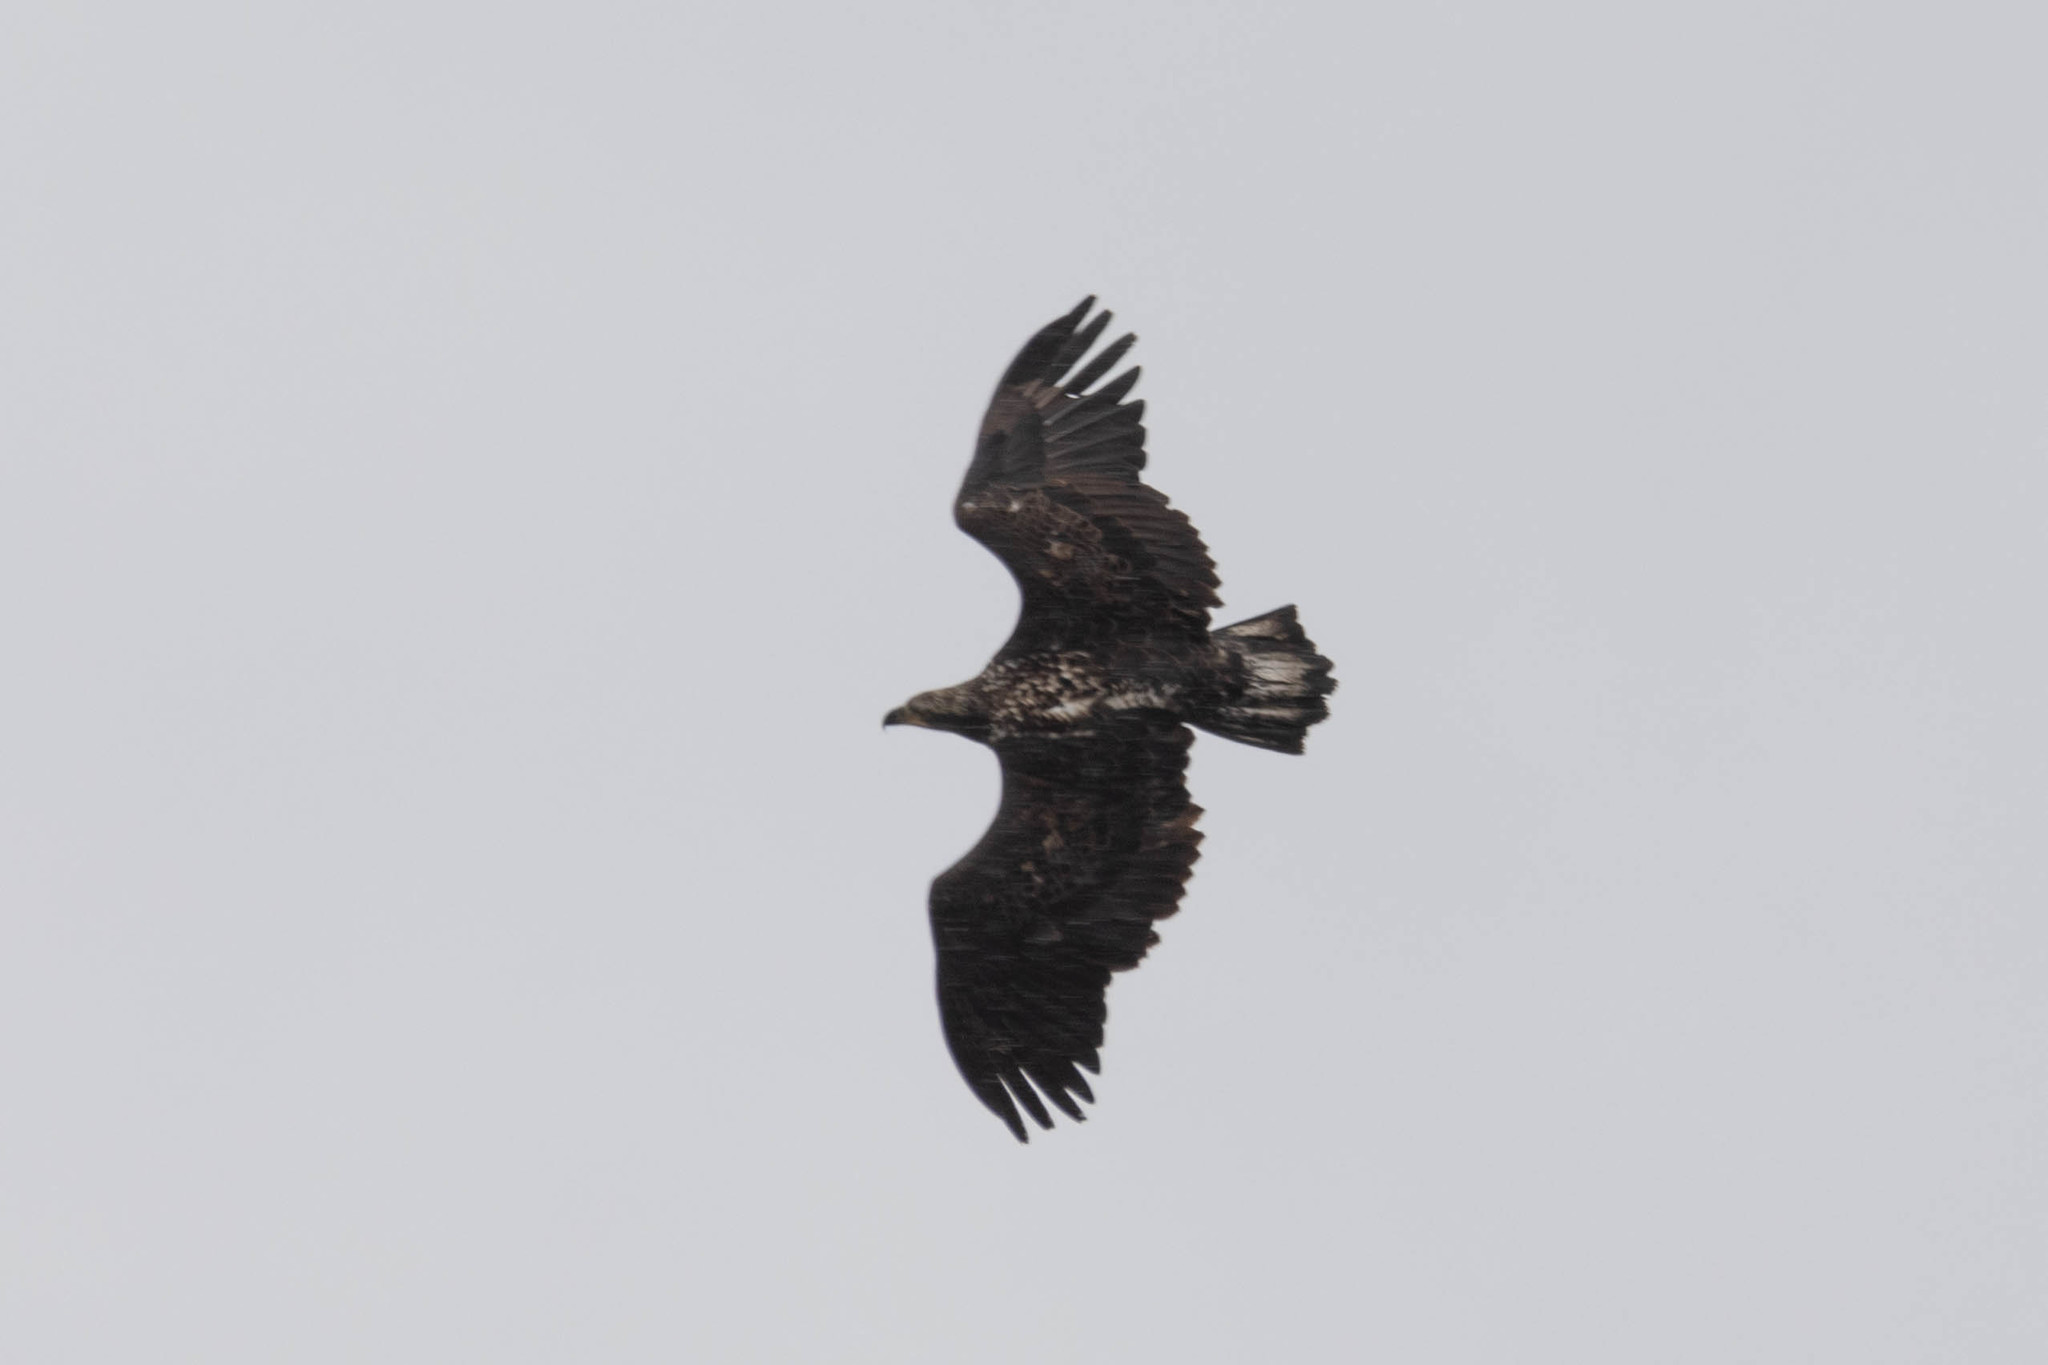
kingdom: Animalia
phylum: Chordata
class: Aves
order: Accipitriformes
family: Accipitridae
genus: Haliaeetus
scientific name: Haliaeetus leucocephalus
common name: Bald eagle
